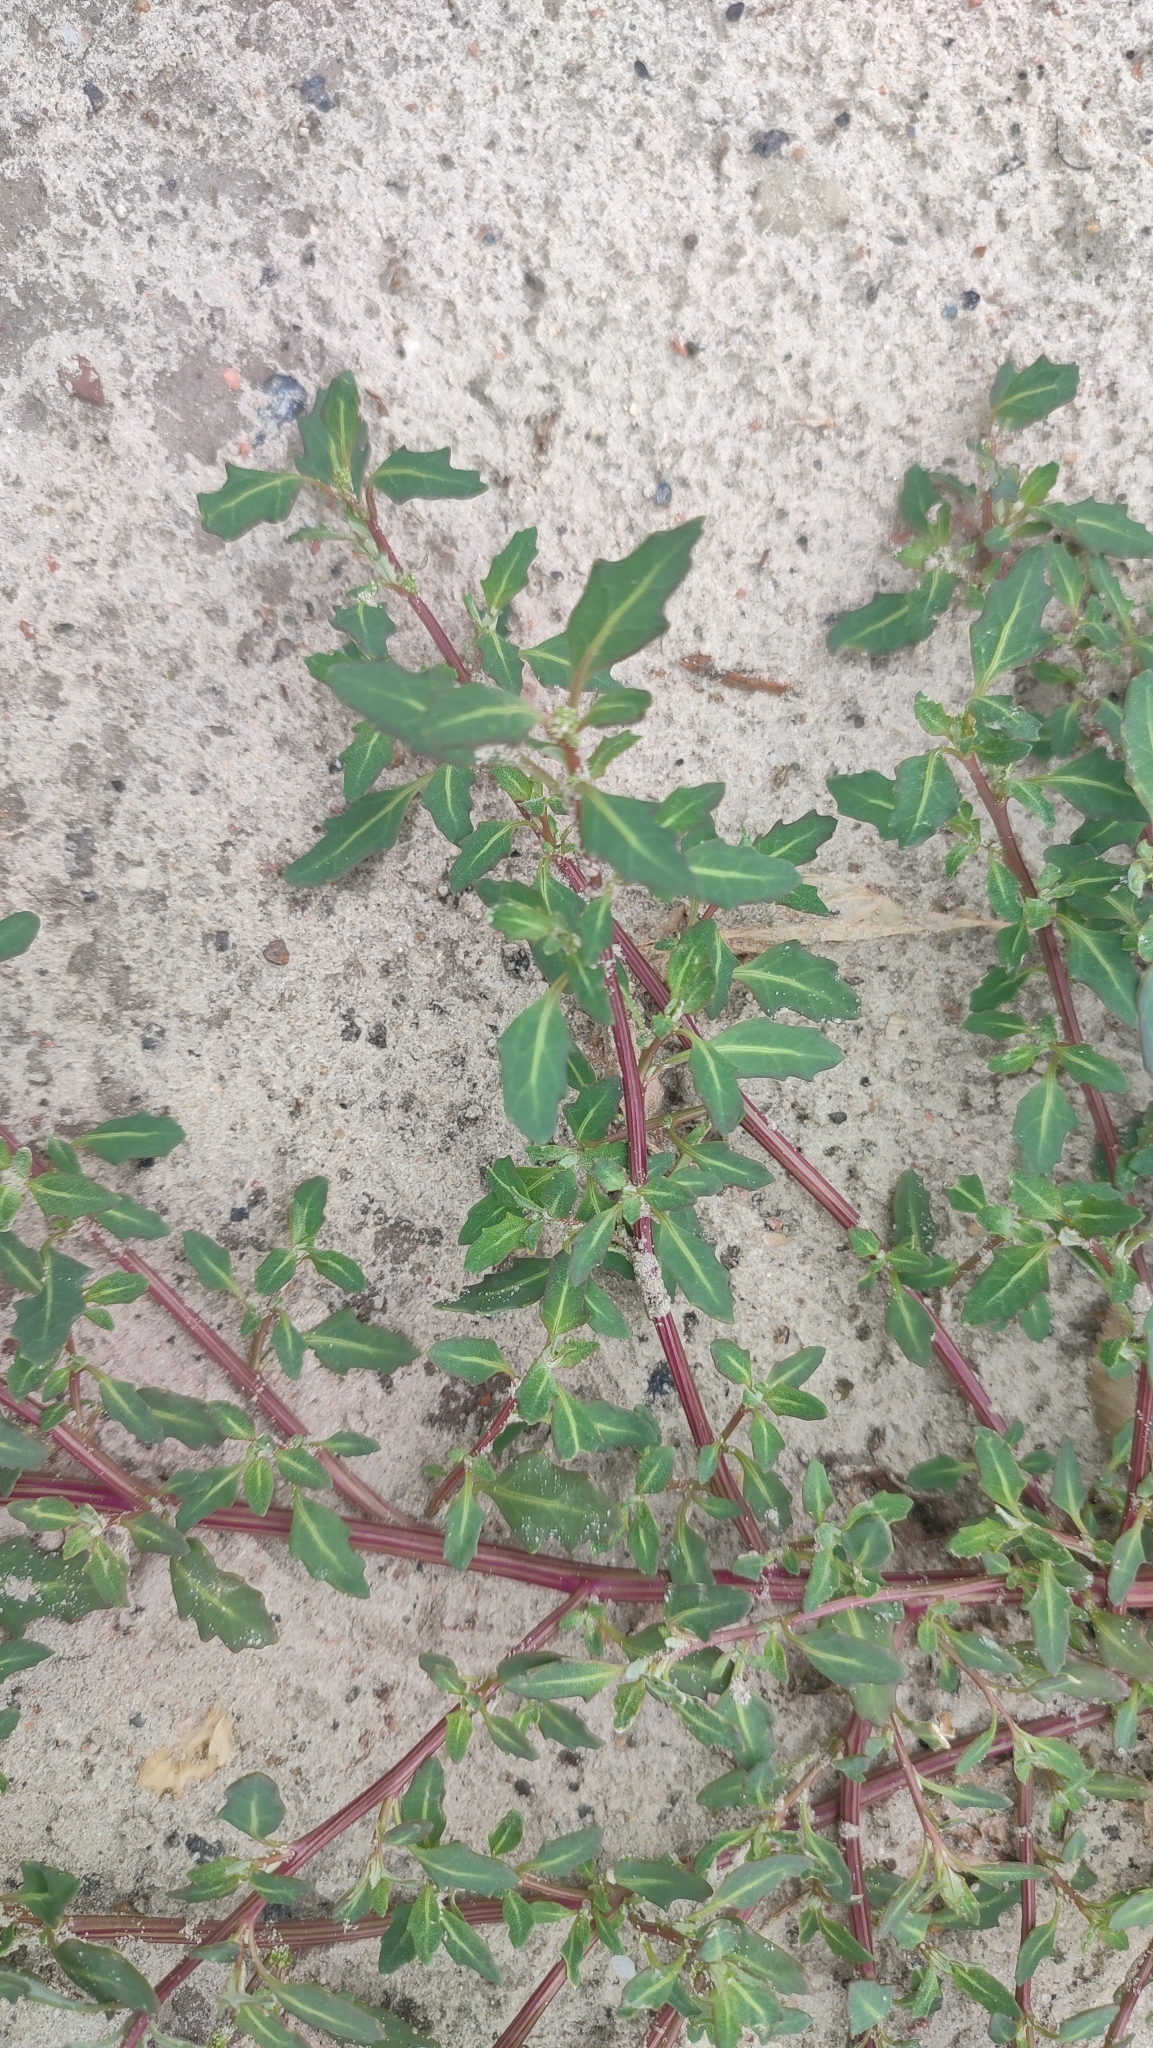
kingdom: Plantae
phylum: Tracheophyta
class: Magnoliopsida
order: Caryophyllales
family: Amaranthaceae
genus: Oxybasis
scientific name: Oxybasis glauca
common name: Glaucous goosefoot
